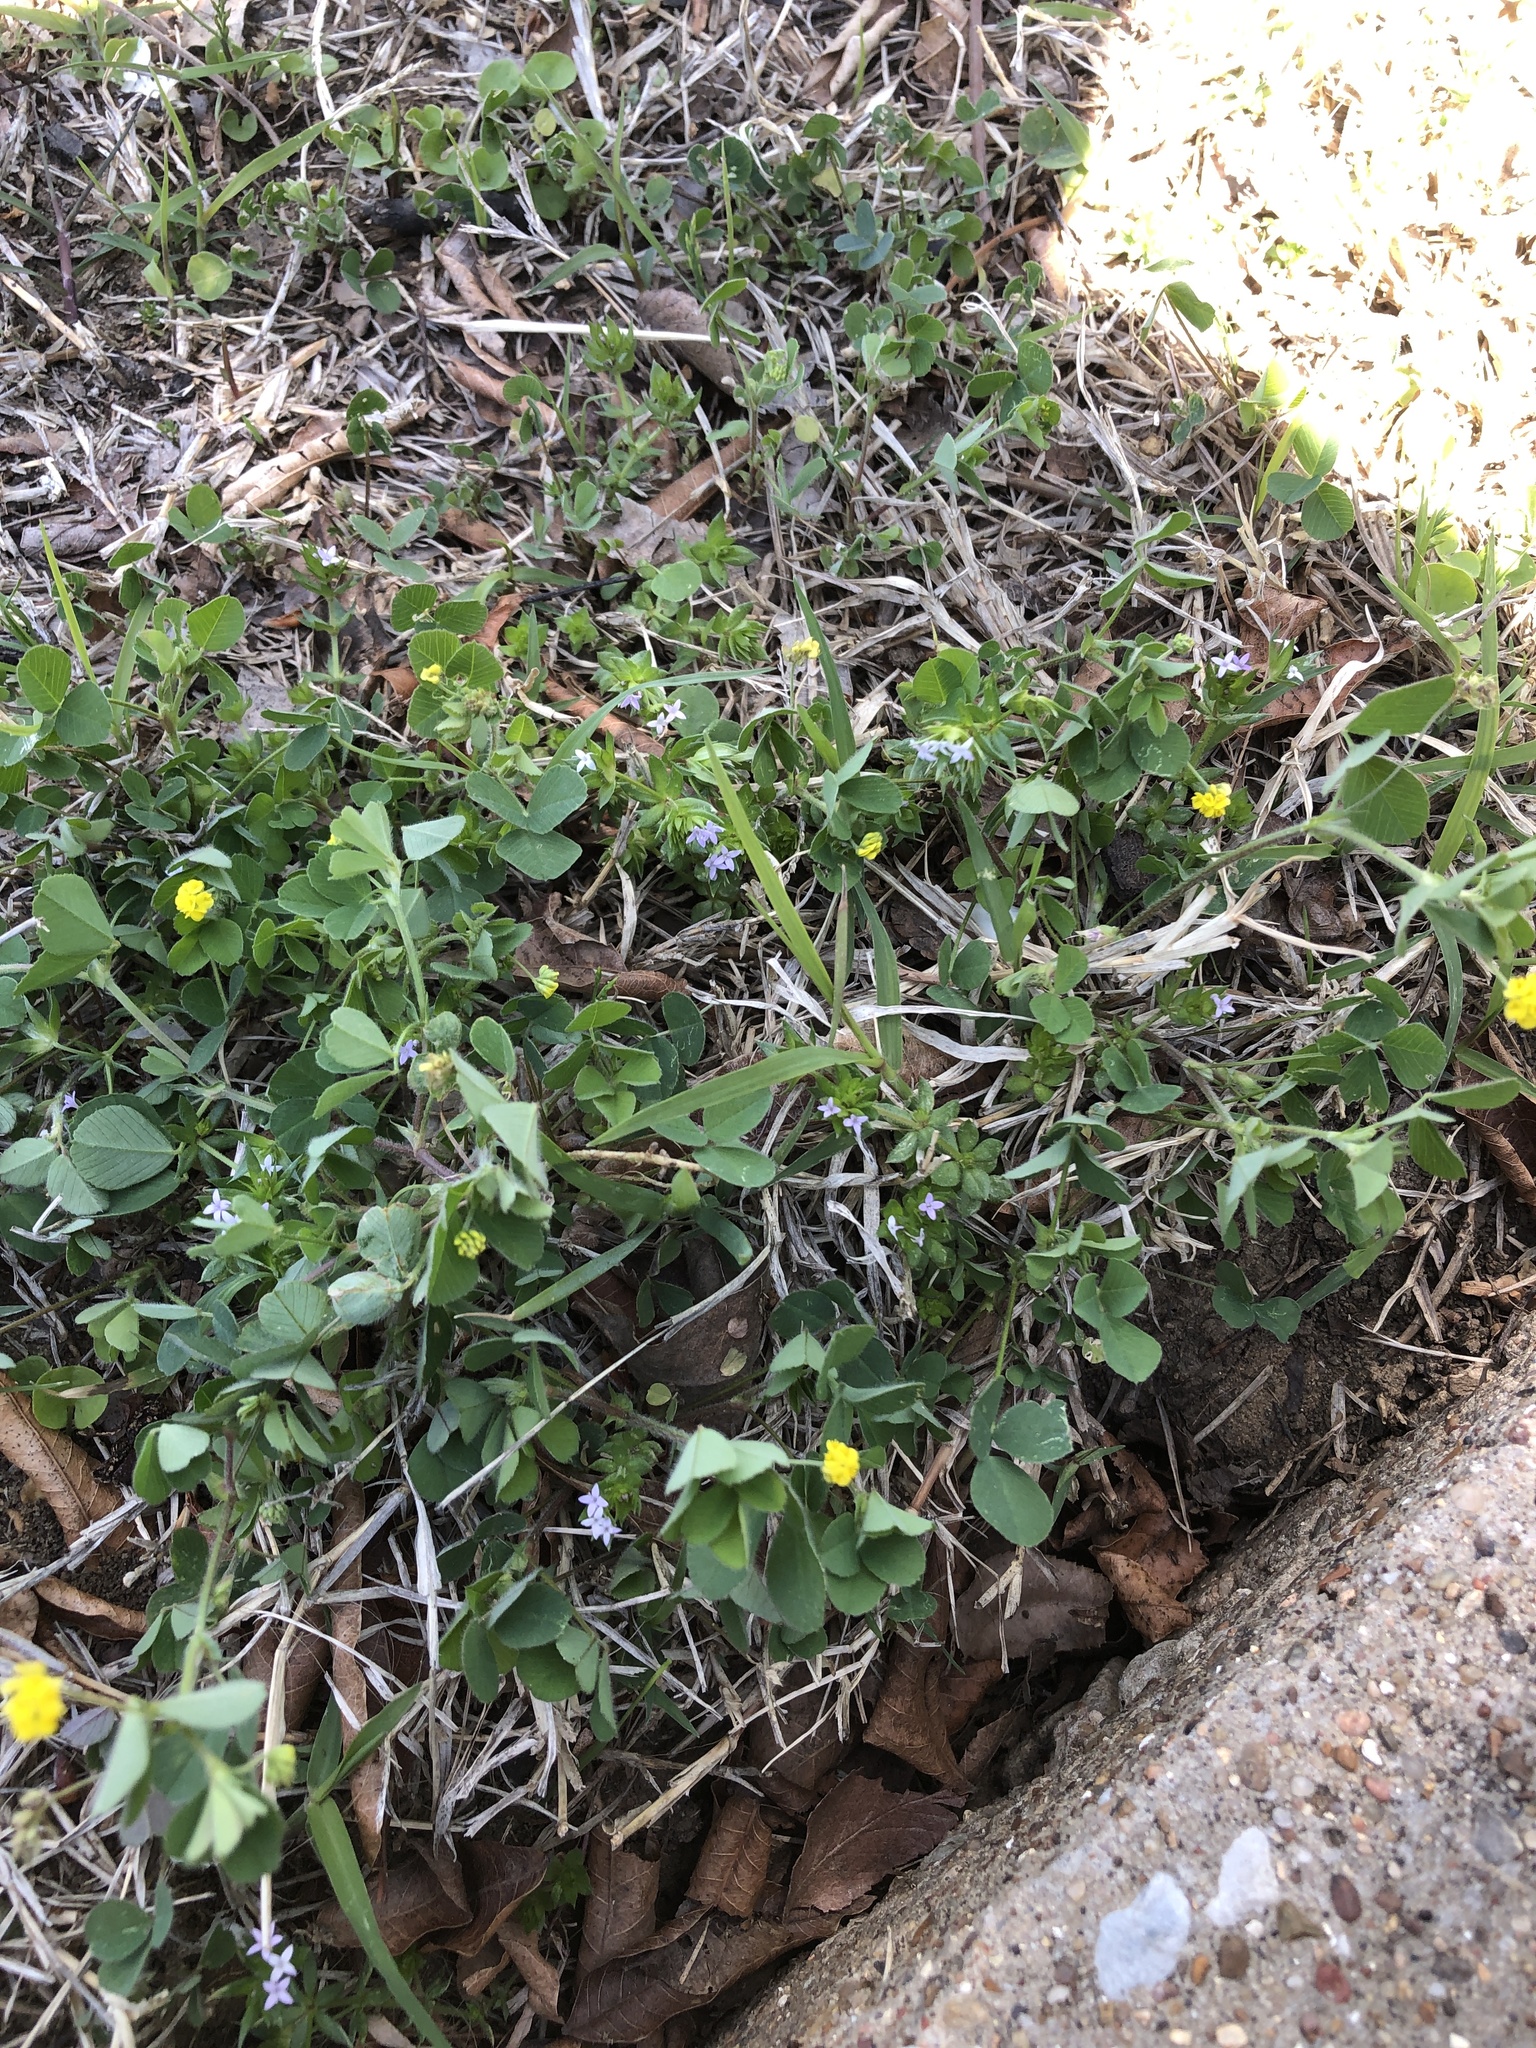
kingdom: Plantae
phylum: Tracheophyta
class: Magnoliopsida
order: Fabales
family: Fabaceae
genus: Medicago
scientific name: Medicago lupulina
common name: Black medick
